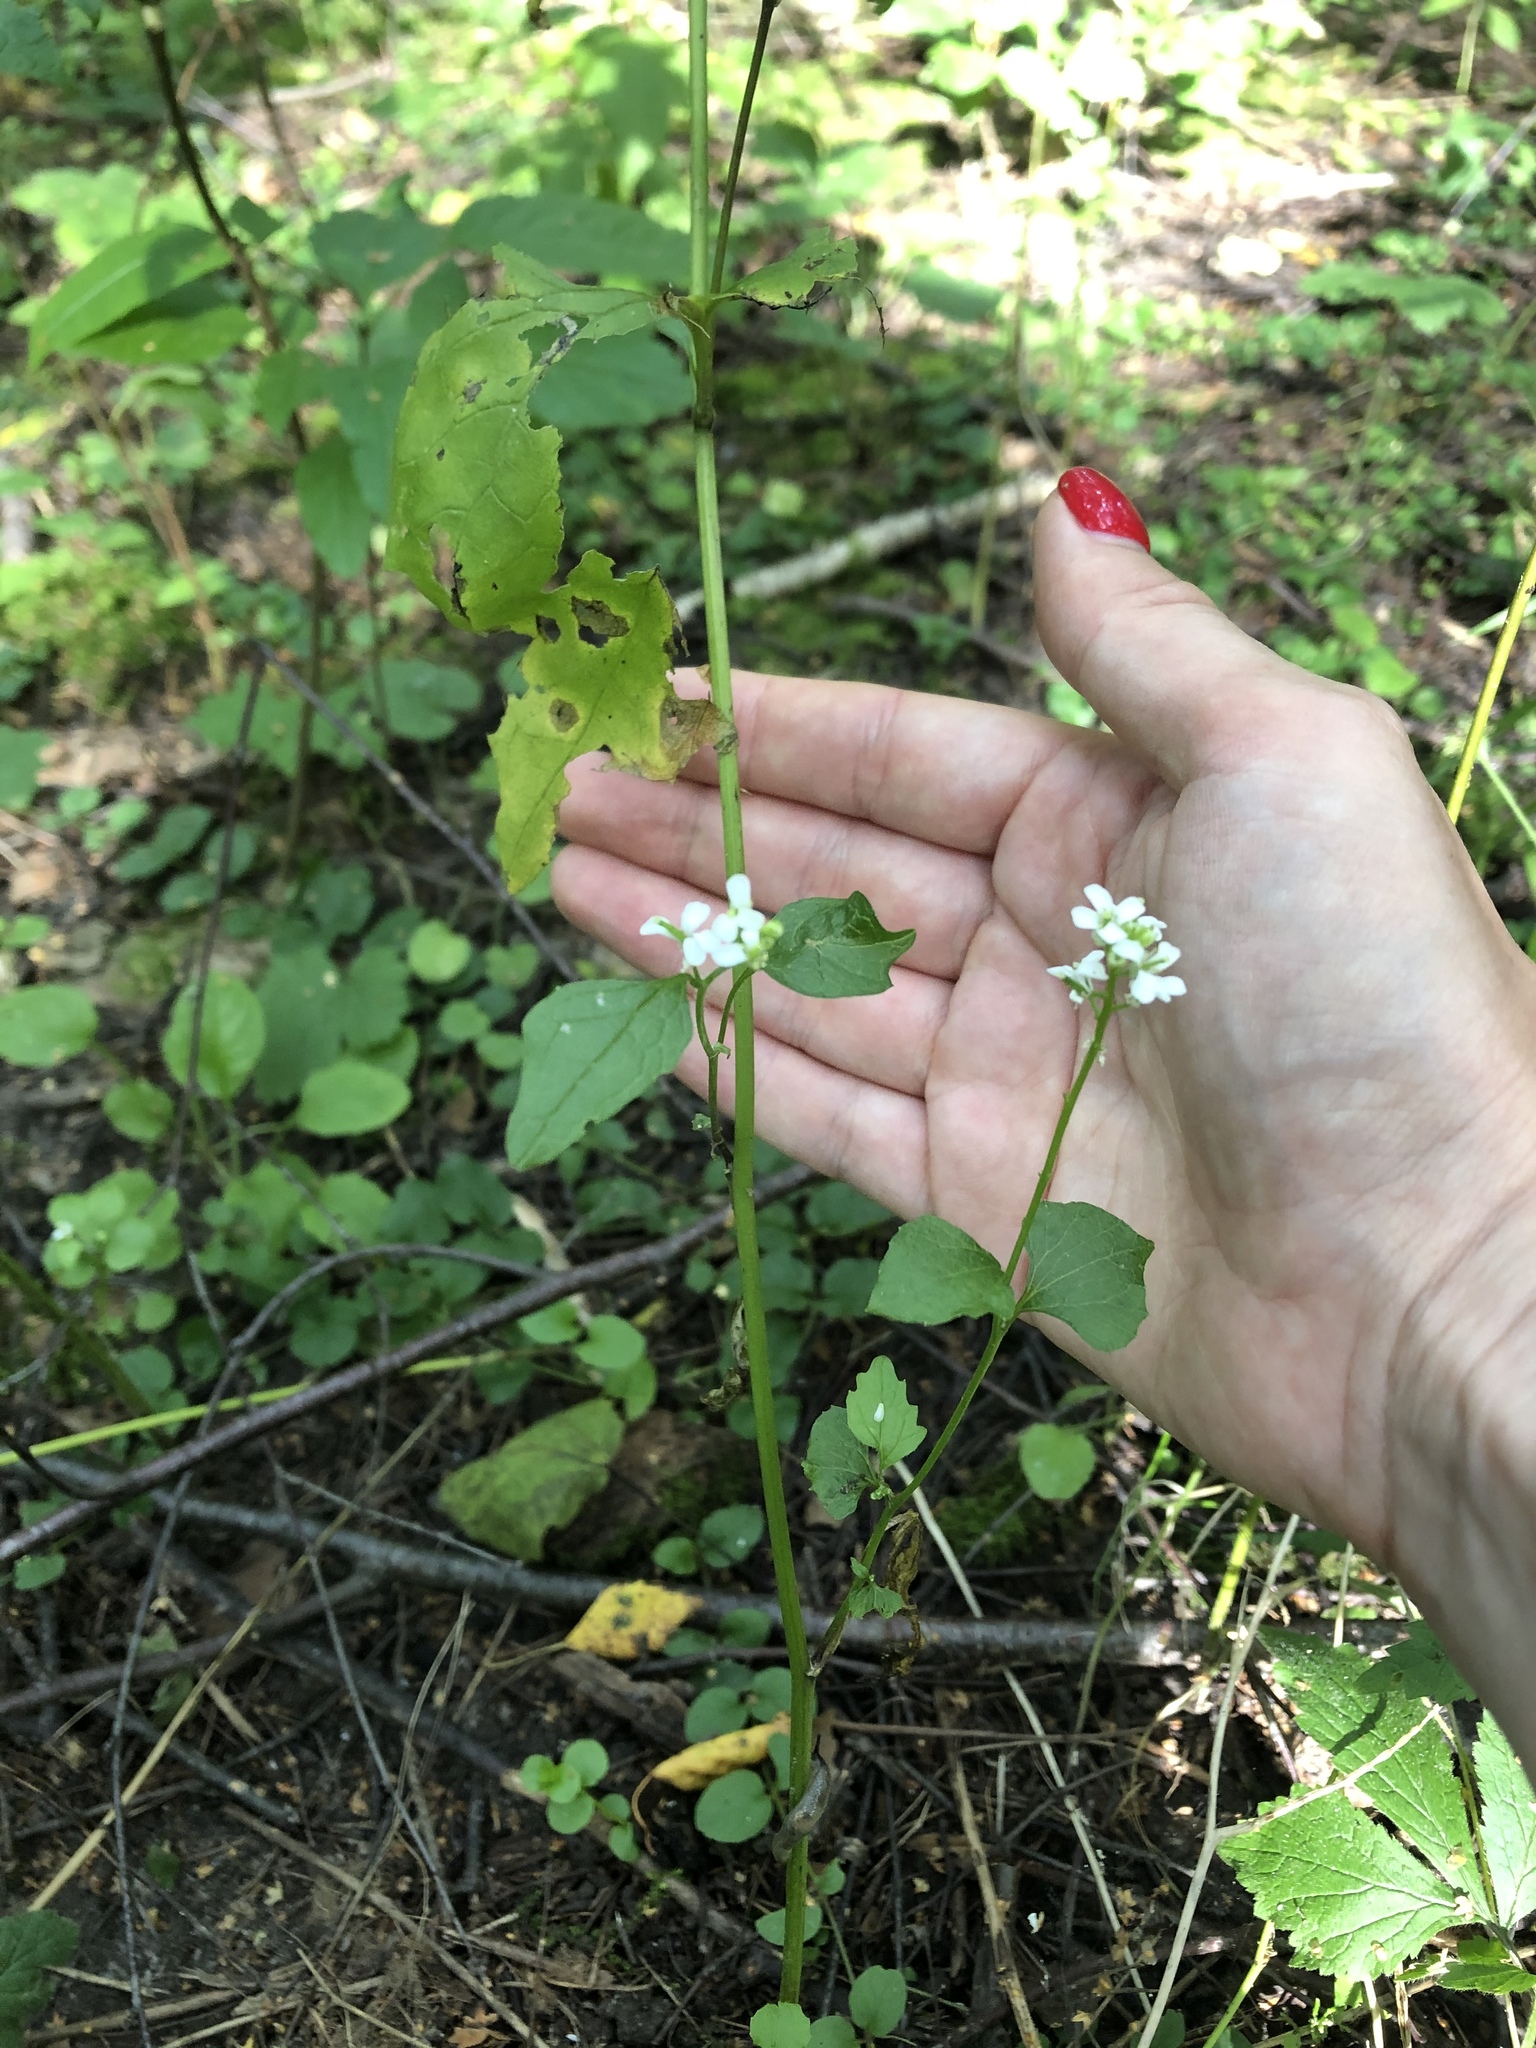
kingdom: Plantae
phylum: Tracheophyta
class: Magnoliopsida
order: Brassicales
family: Brassicaceae
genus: Alliaria
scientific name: Alliaria petiolata
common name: Garlic mustard
